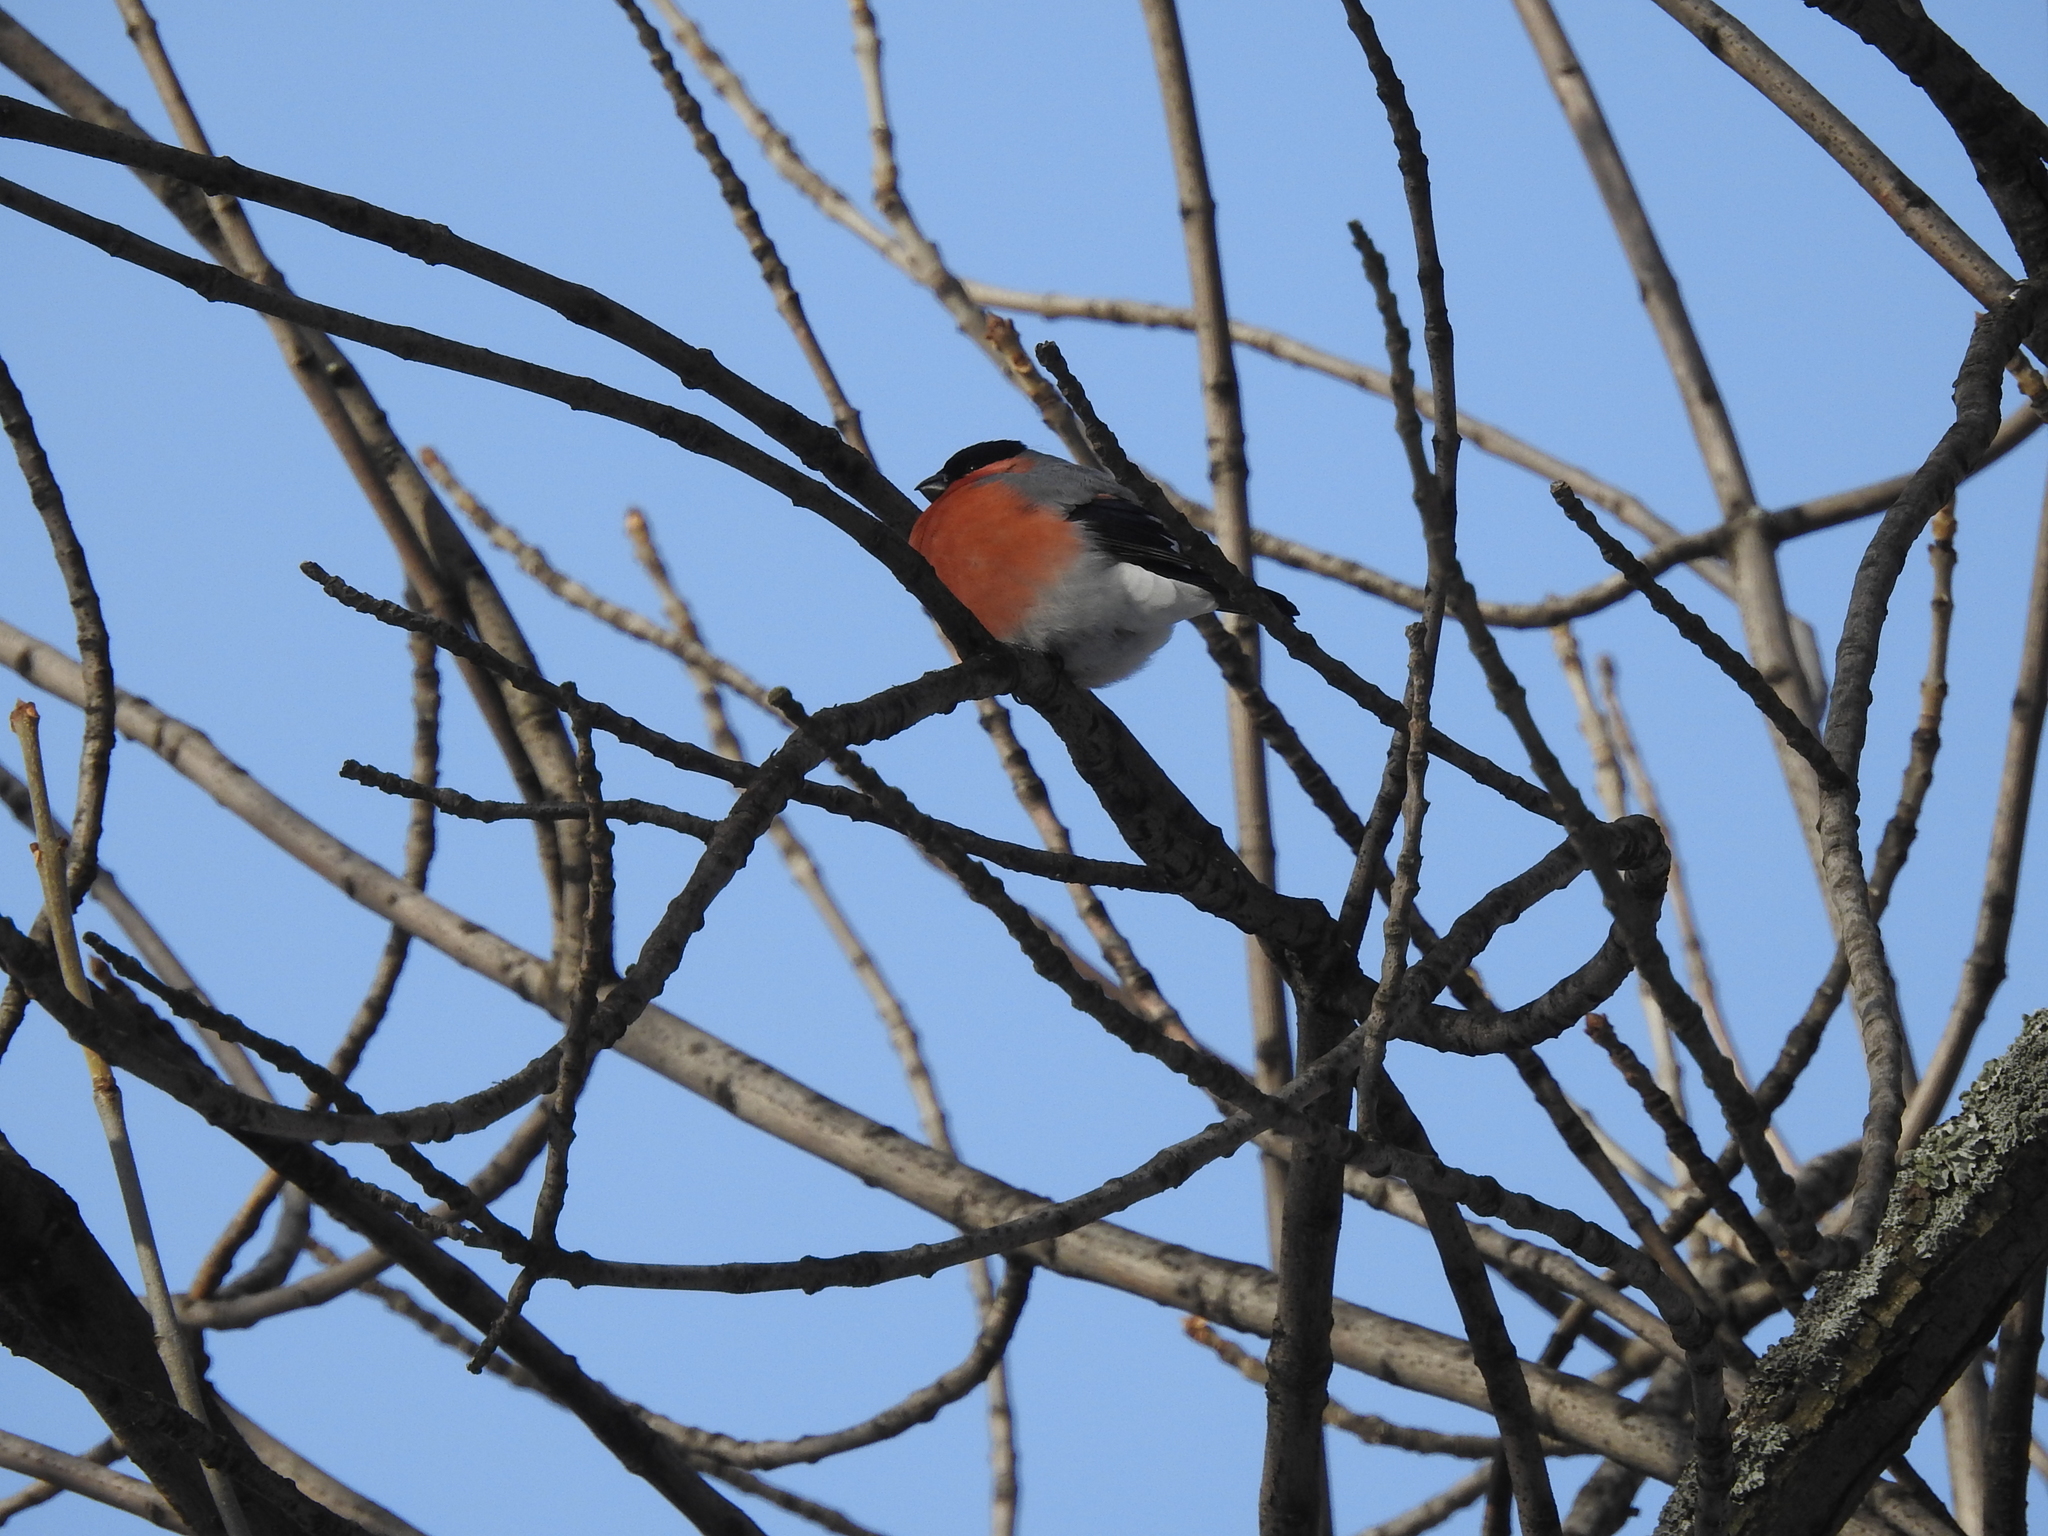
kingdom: Animalia
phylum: Chordata
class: Aves
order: Passeriformes
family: Fringillidae
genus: Pyrrhula
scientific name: Pyrrhula pyrrhula
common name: Eurasian bullfinch
